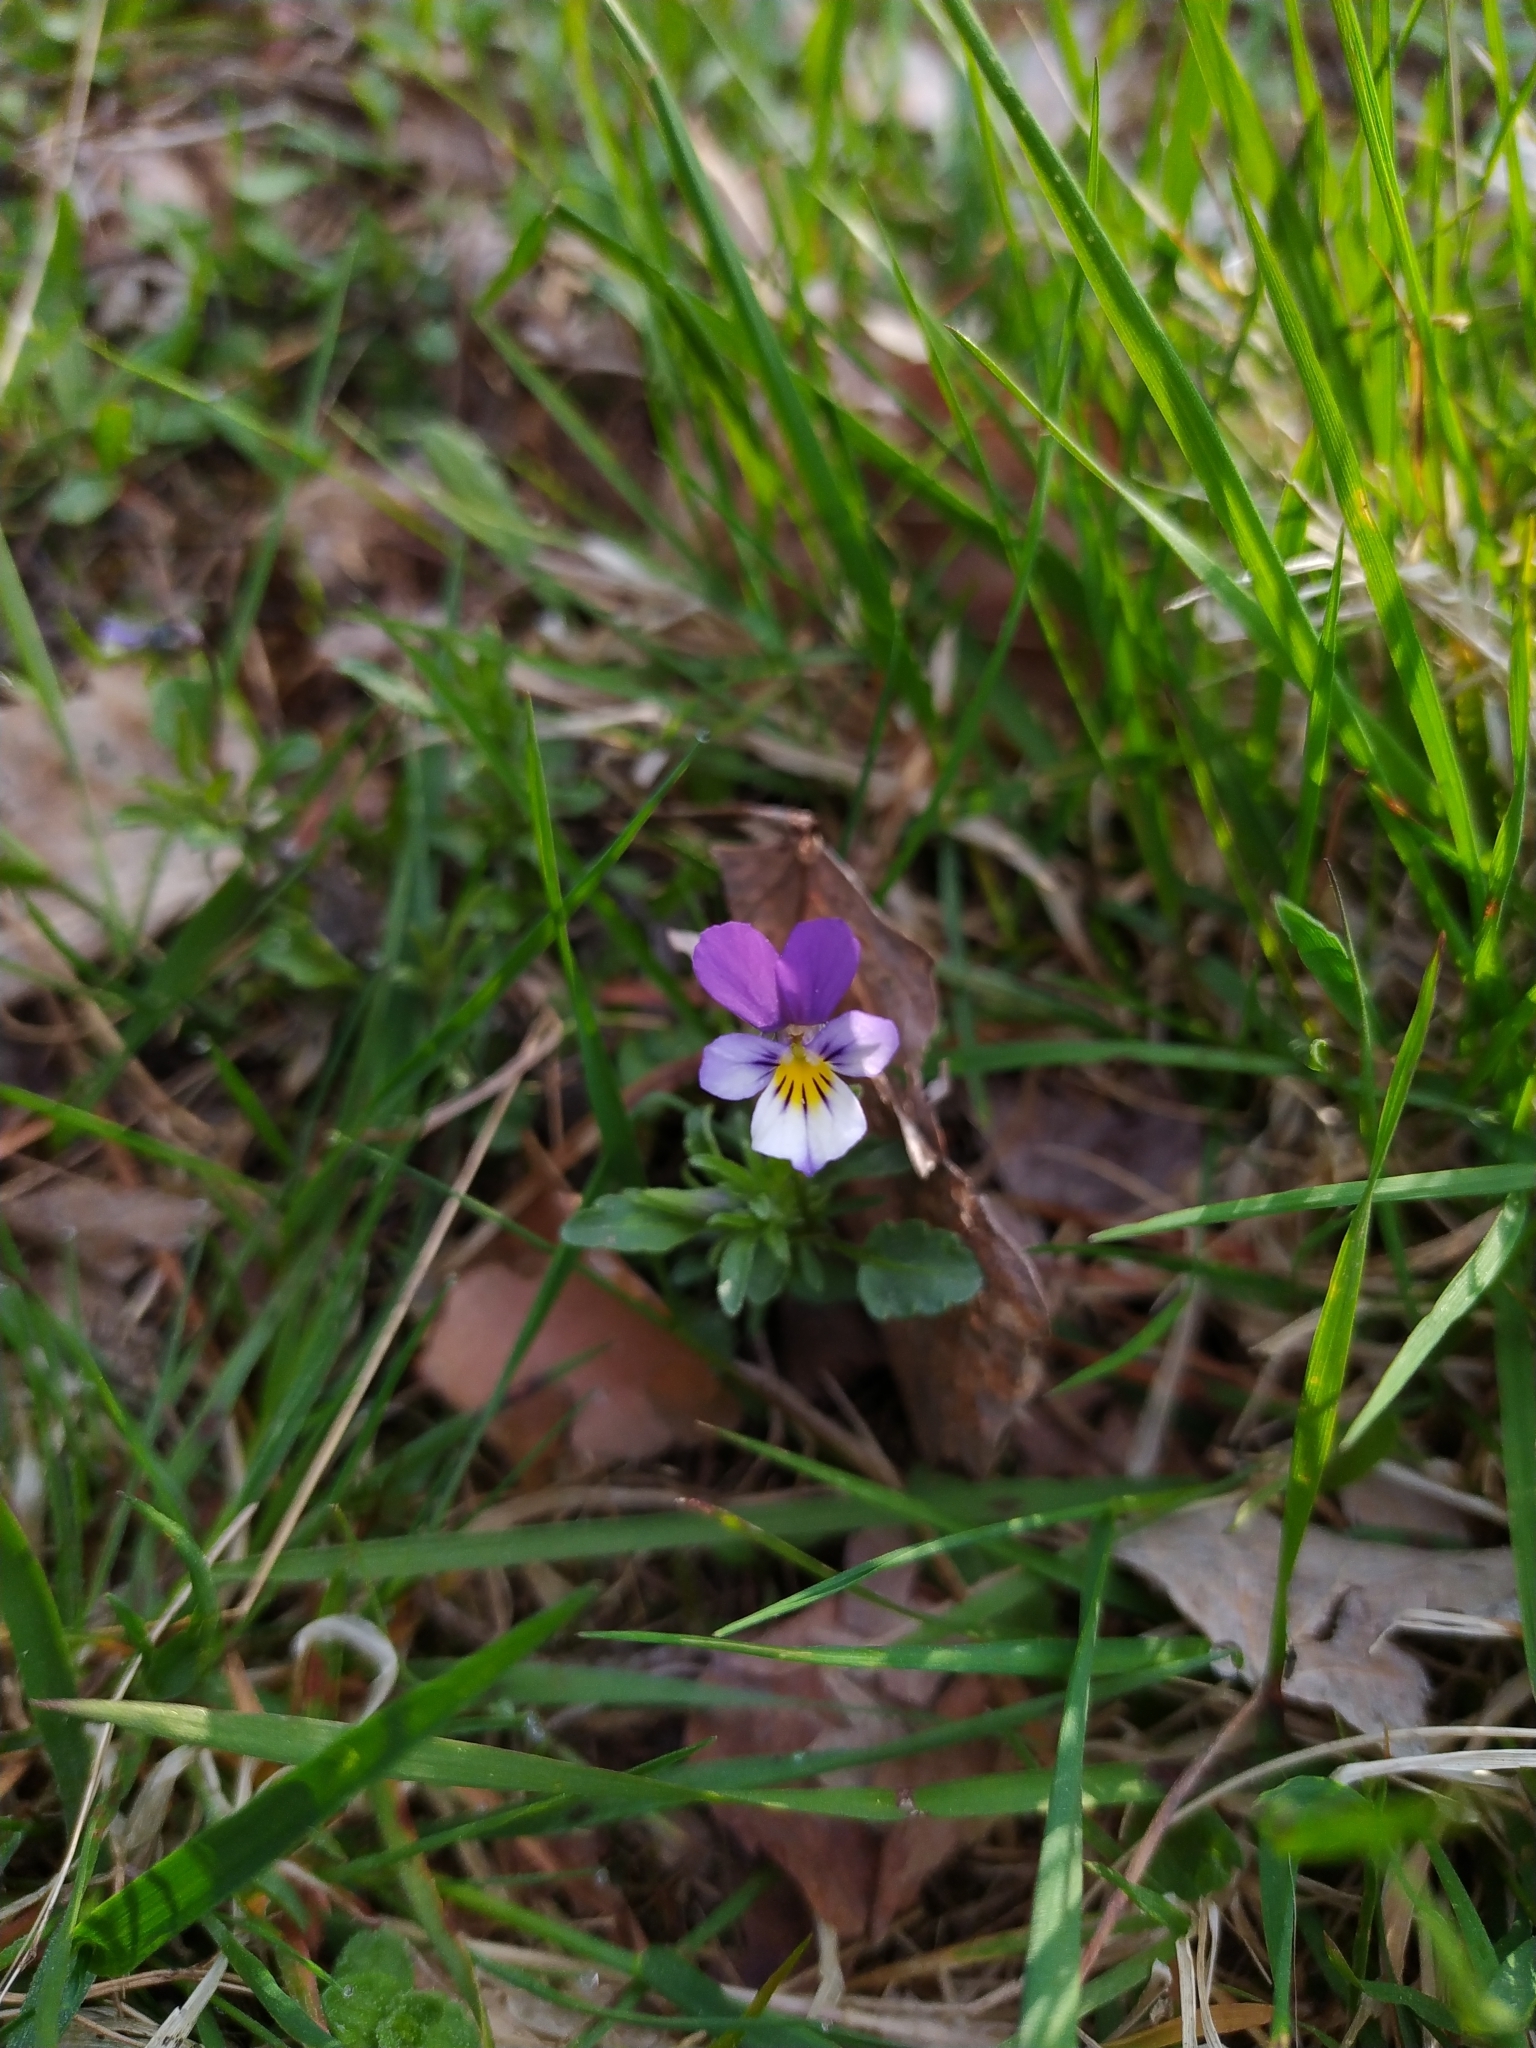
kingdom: Plantae
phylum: Tracheophyta
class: Magnoliopsida
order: Malpighiales
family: Violaceae
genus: Viola
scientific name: Viola tricolor
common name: Pansy
